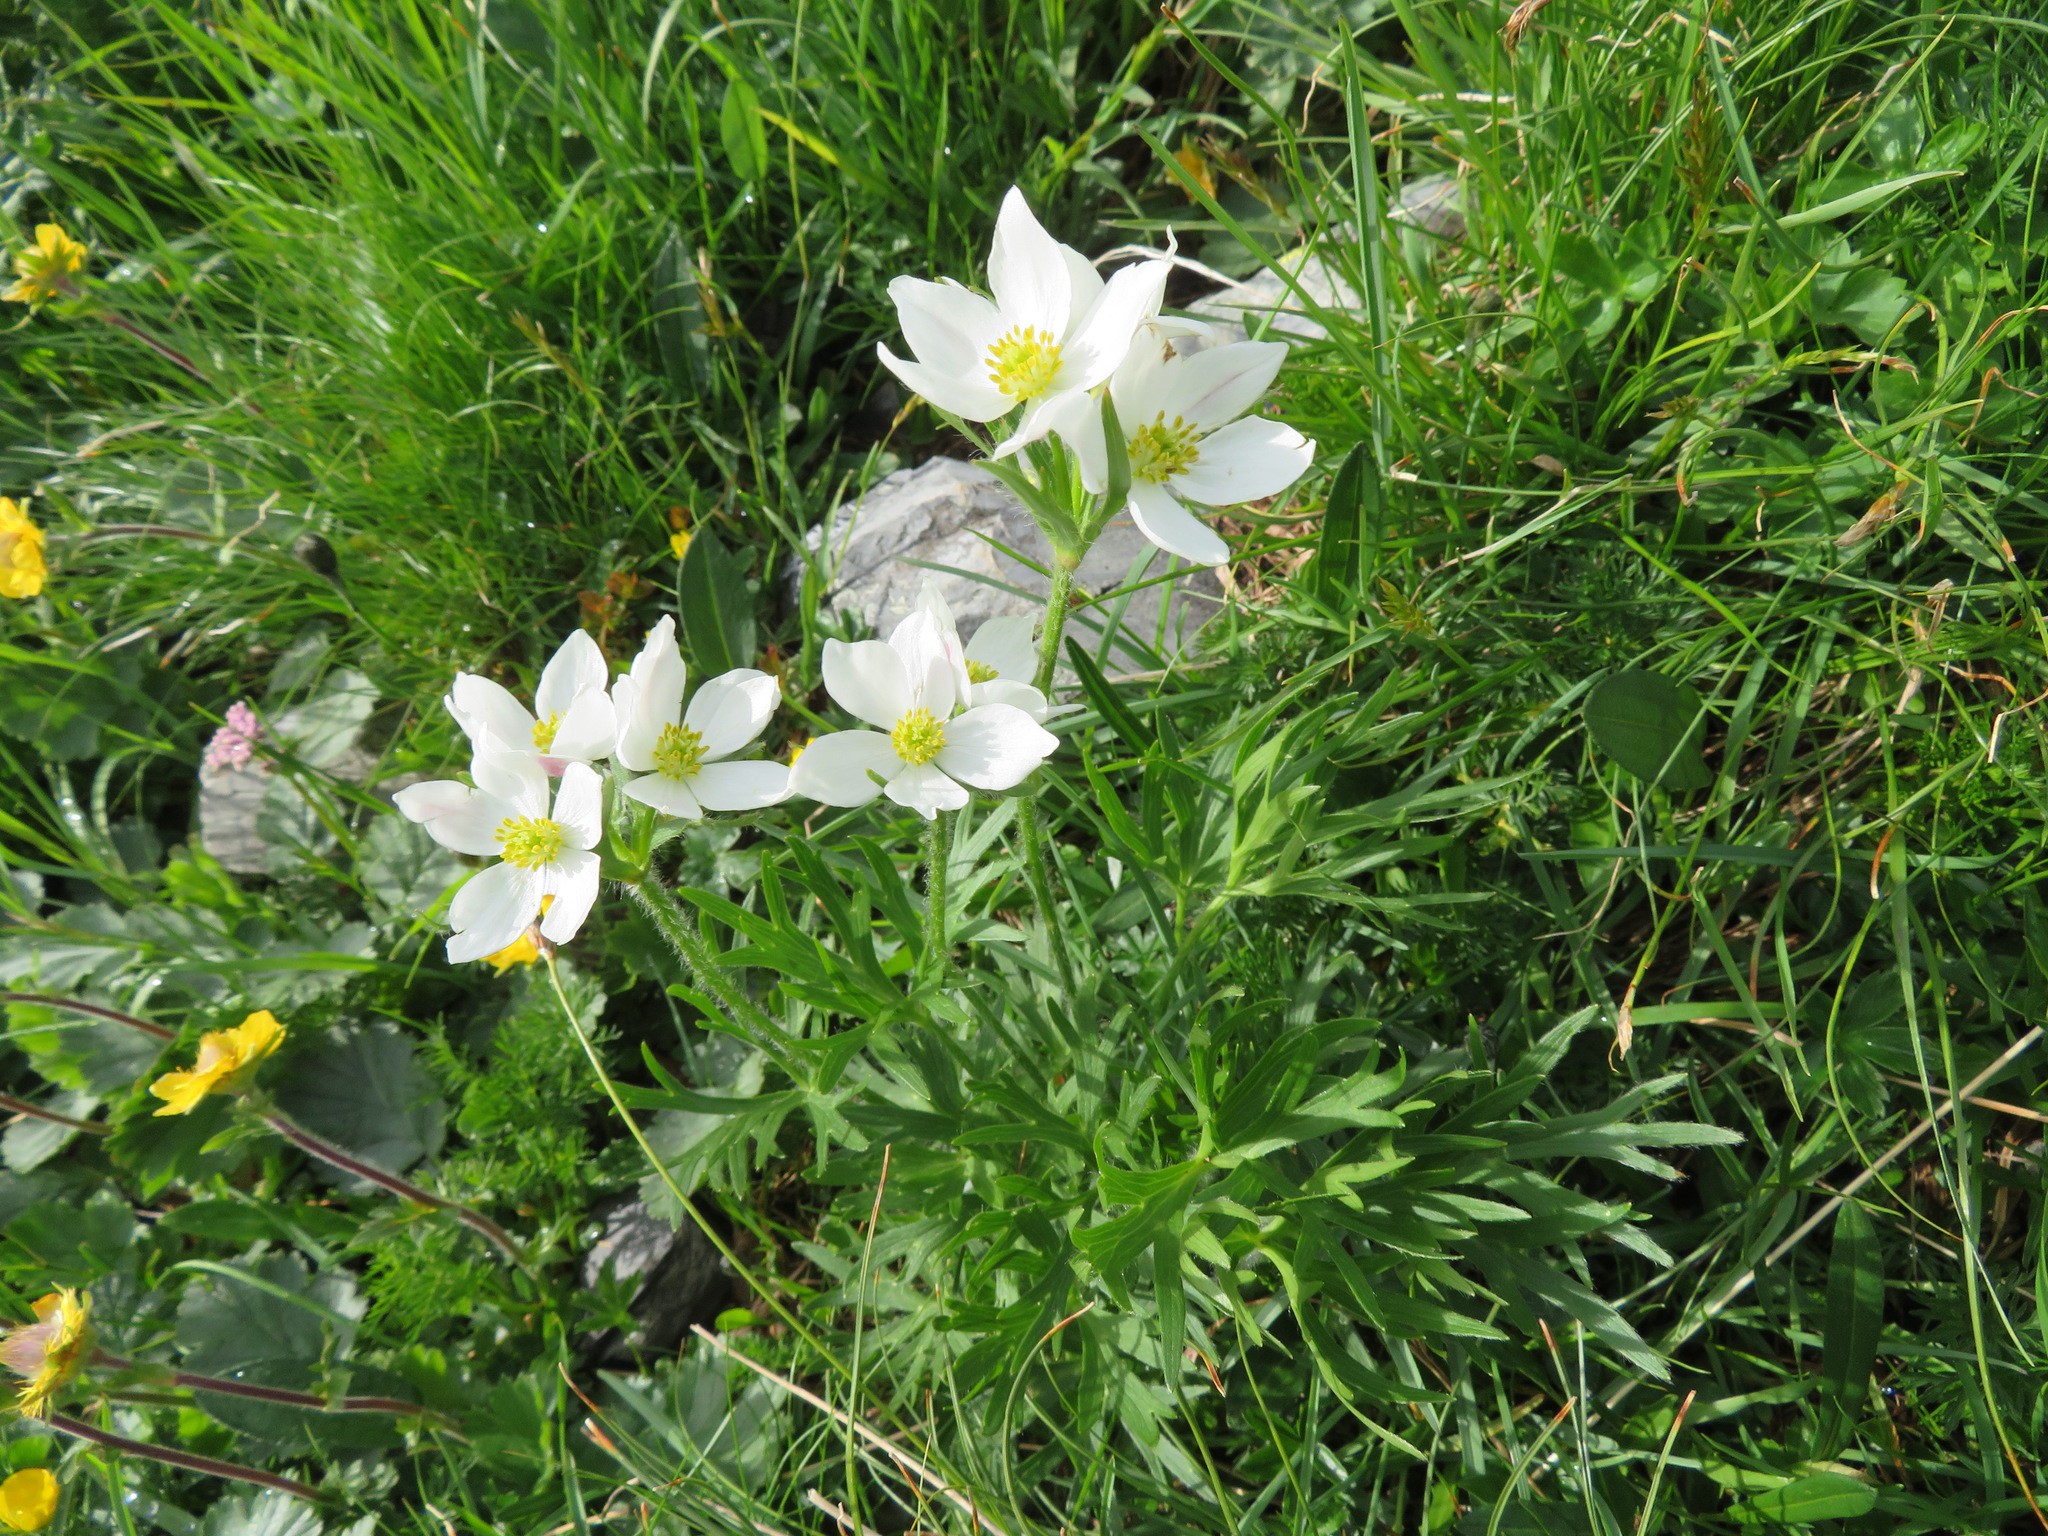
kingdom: Plantae
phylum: Tracheophyta
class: Magnoliopsida
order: Ranunculales
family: Ranunculaceae
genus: Anemonastrum
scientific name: Anemonastrum narcissiflorum
